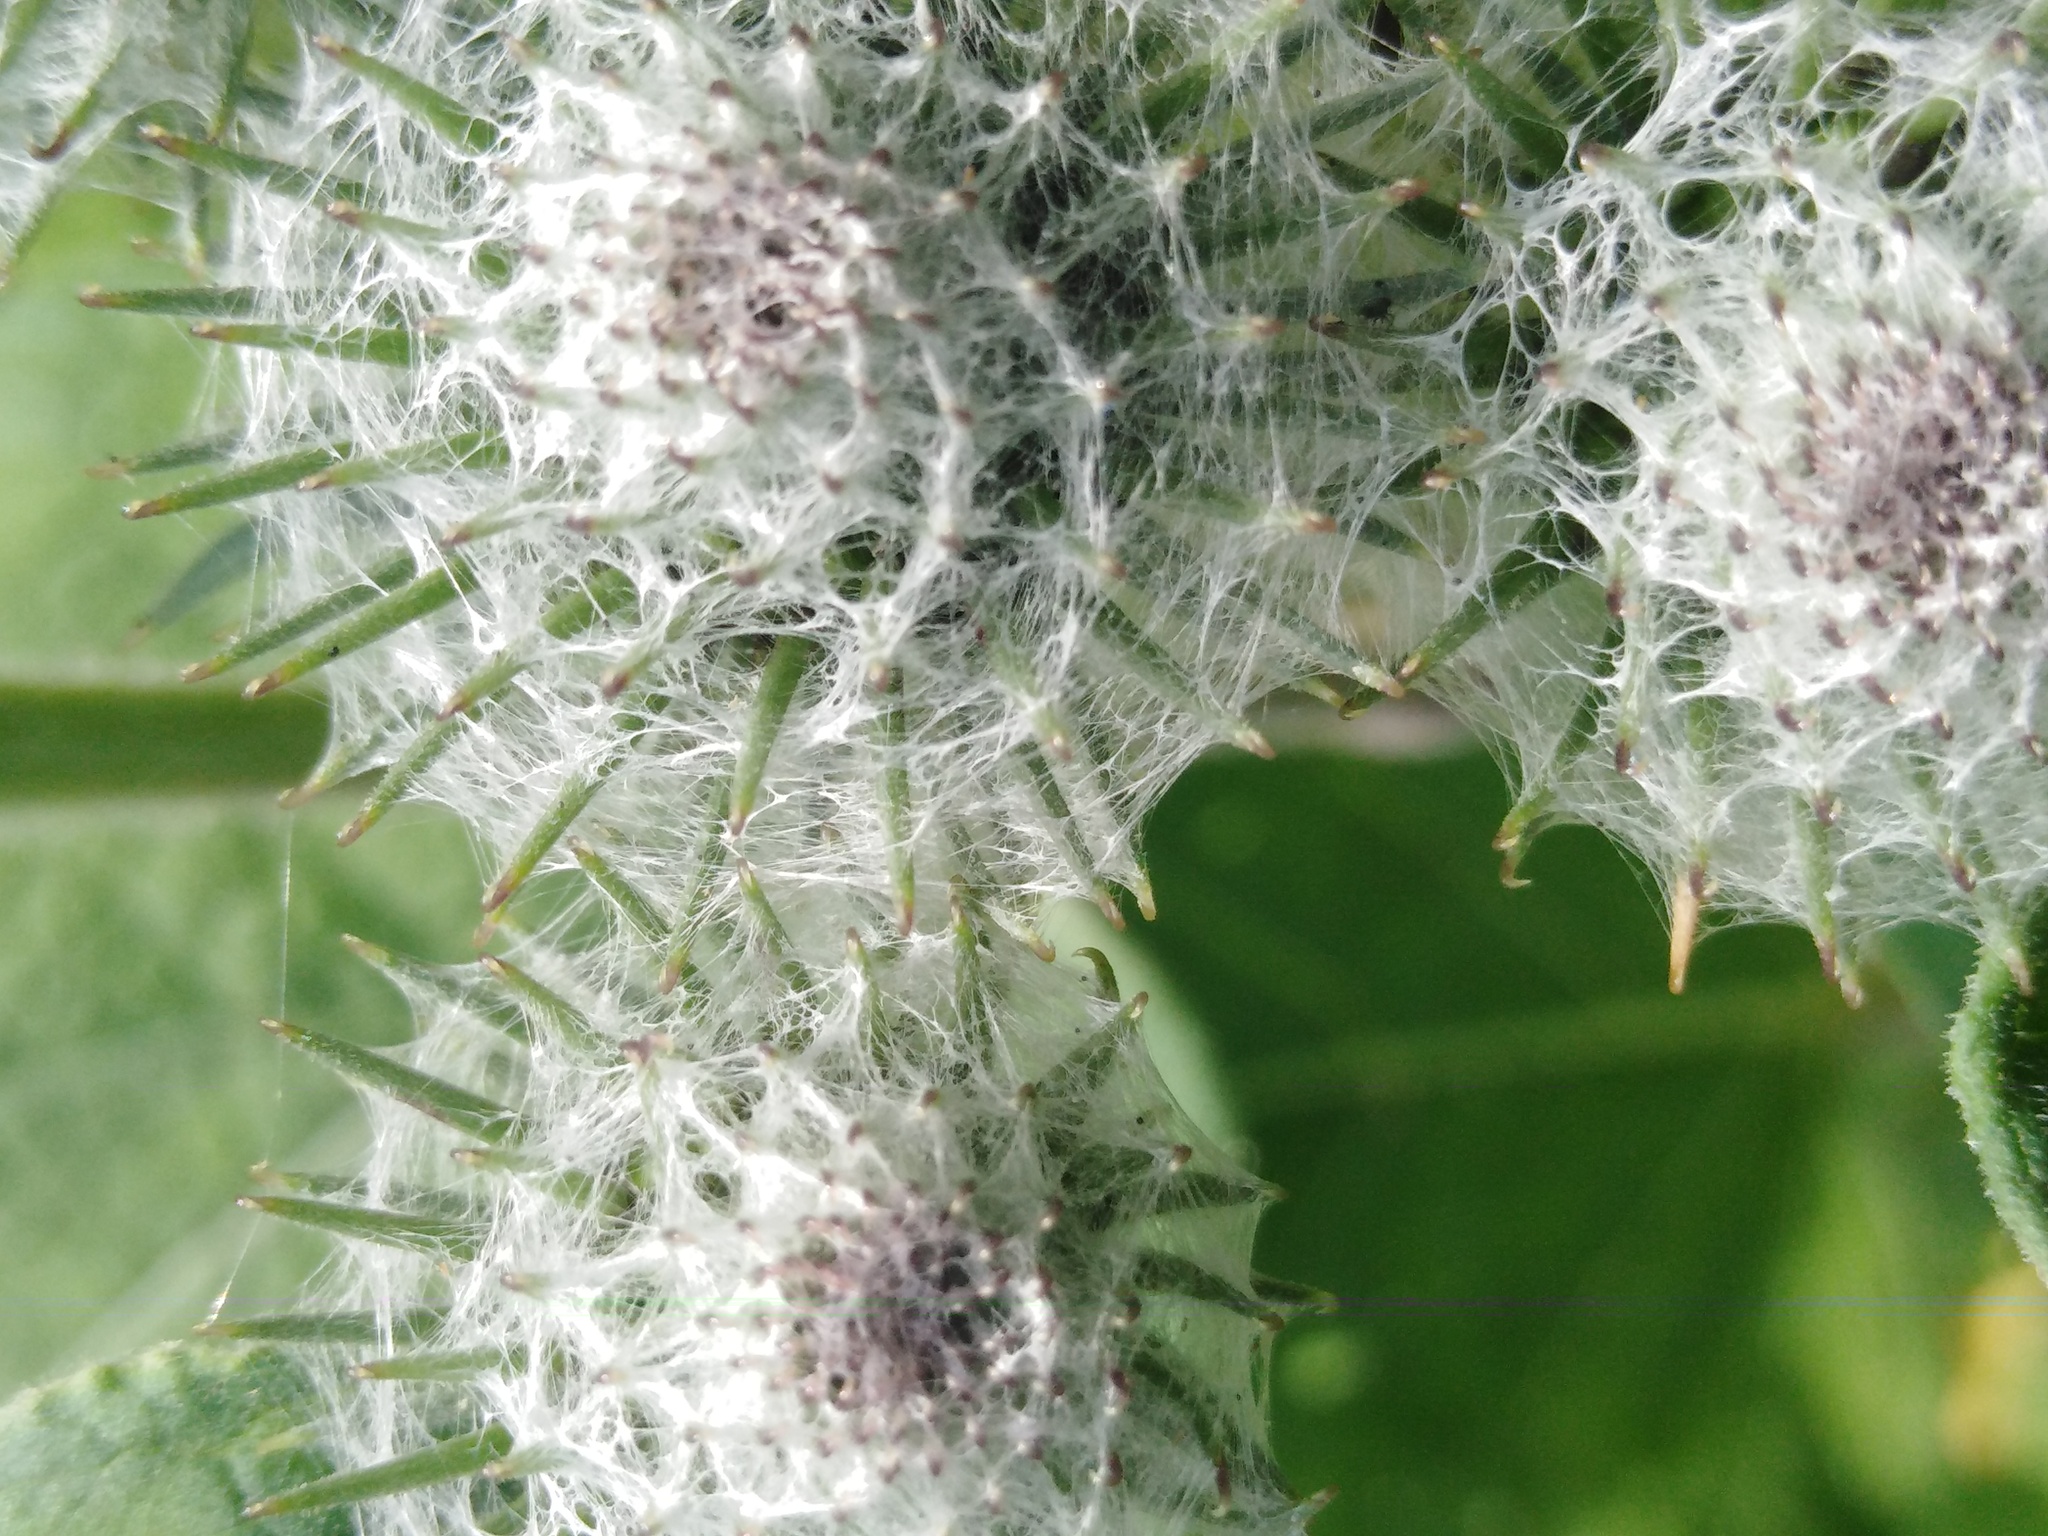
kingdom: Plantae
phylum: Tracheophyta
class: Magnoliopsida
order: Asterales
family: Asteraceae
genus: Arctium
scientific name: Arctium tomentosum
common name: Woolly burdock
